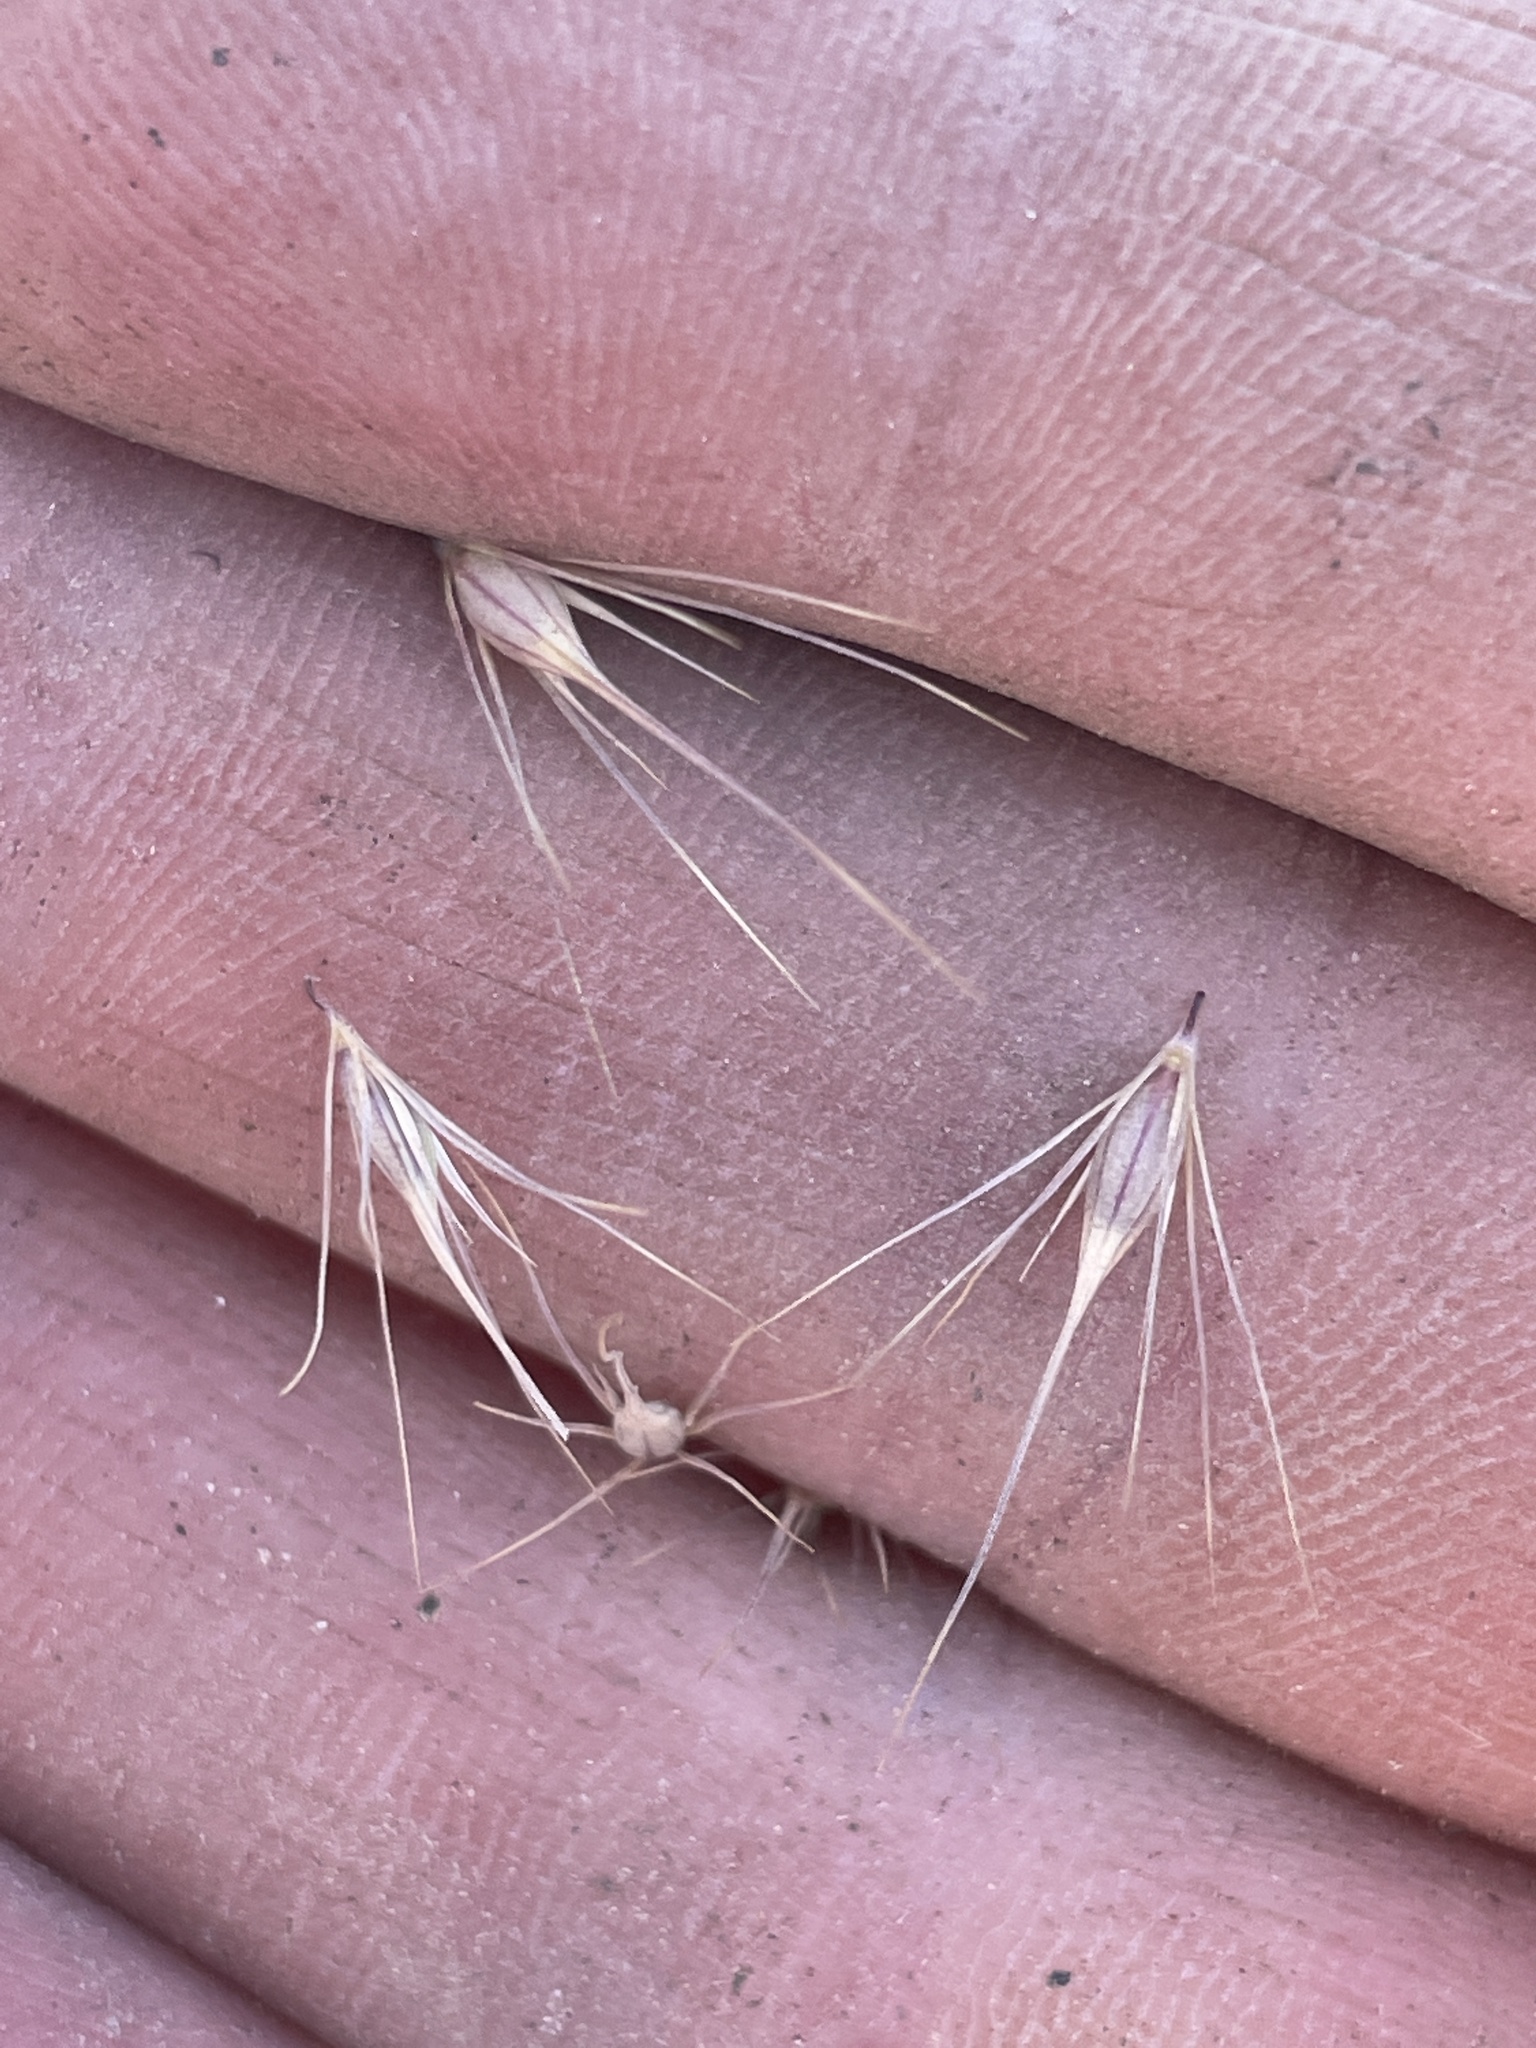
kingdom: Plantae
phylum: Tracheophyta
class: Liliopsida
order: Poales
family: Poaceae
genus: Hordeum
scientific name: Hordeum marinum
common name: Sea barley
